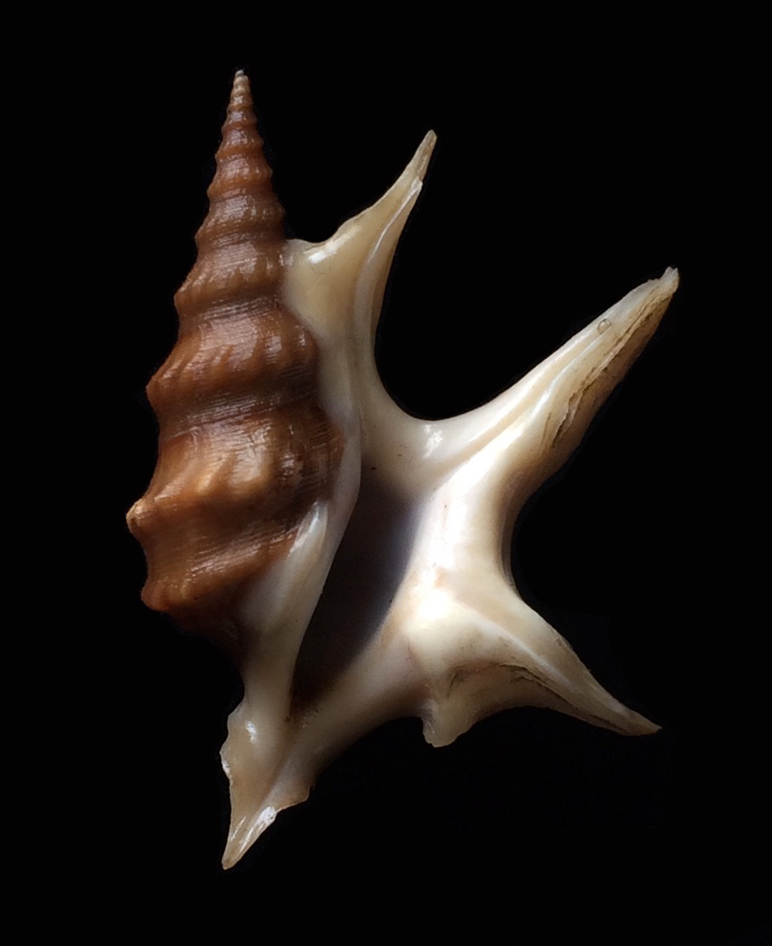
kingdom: Animalia
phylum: Mollusca
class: Gastropoda
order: Littorinimorpha
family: Aporrhaidae
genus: Aporrhais
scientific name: Aporrhais pespelecani
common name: Common pelican’s foot
